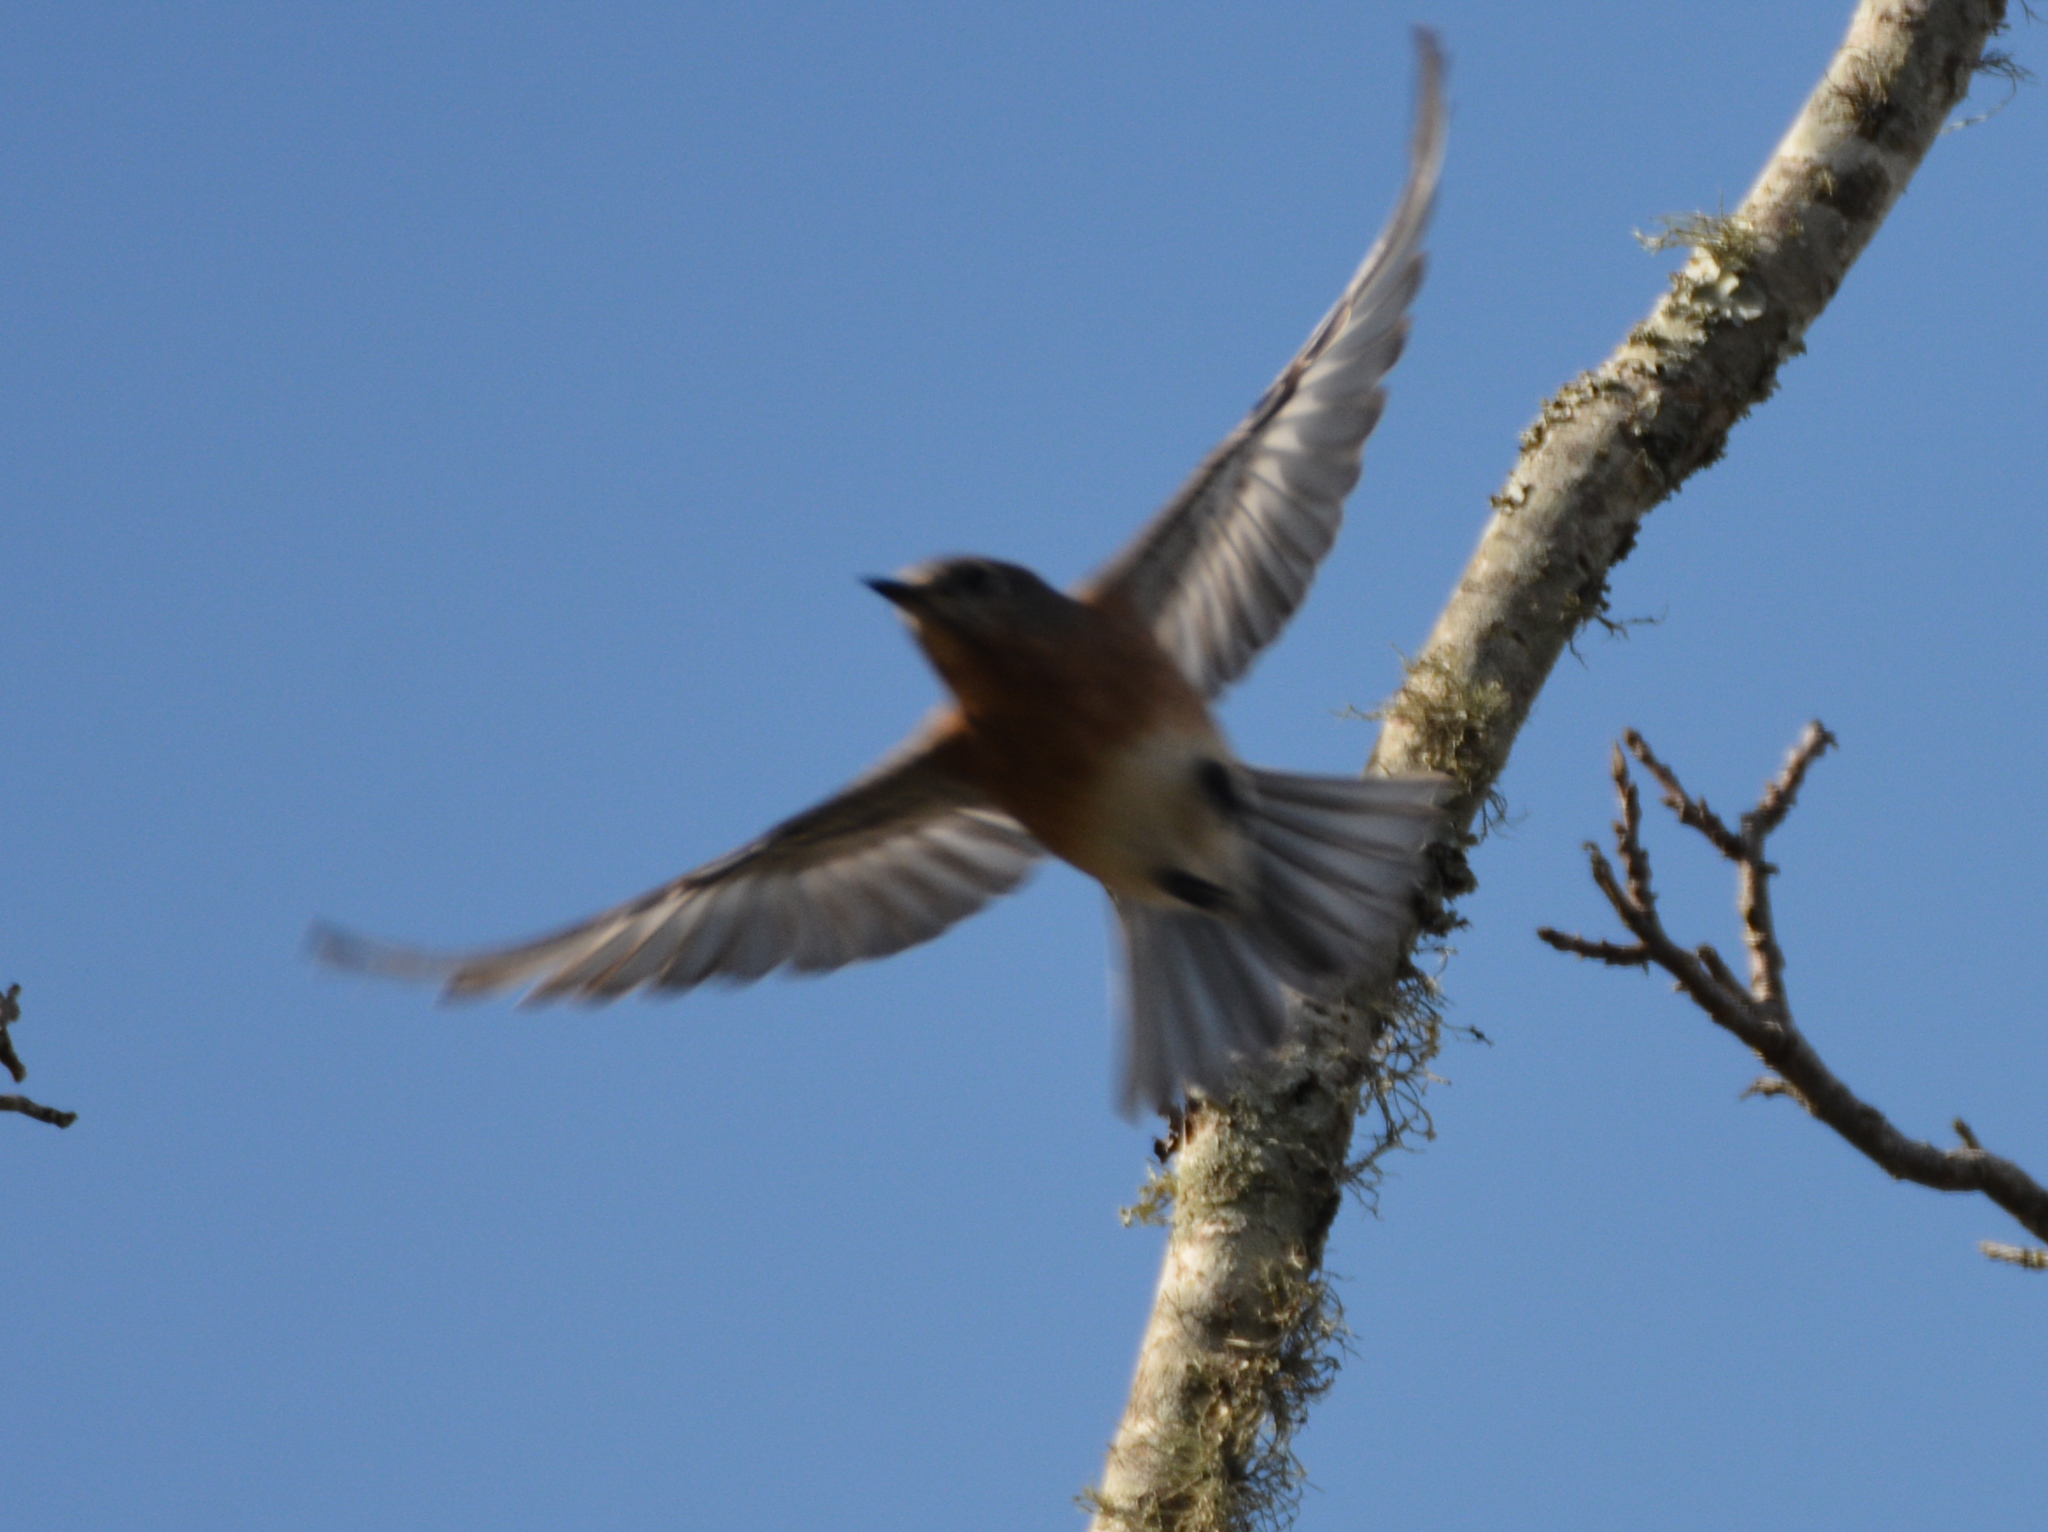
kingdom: Animalia
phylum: Chordata
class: Aves
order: Passeriformes
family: Turdidae
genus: Sialia
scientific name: Sialia sialis
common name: Eastern bluebird
